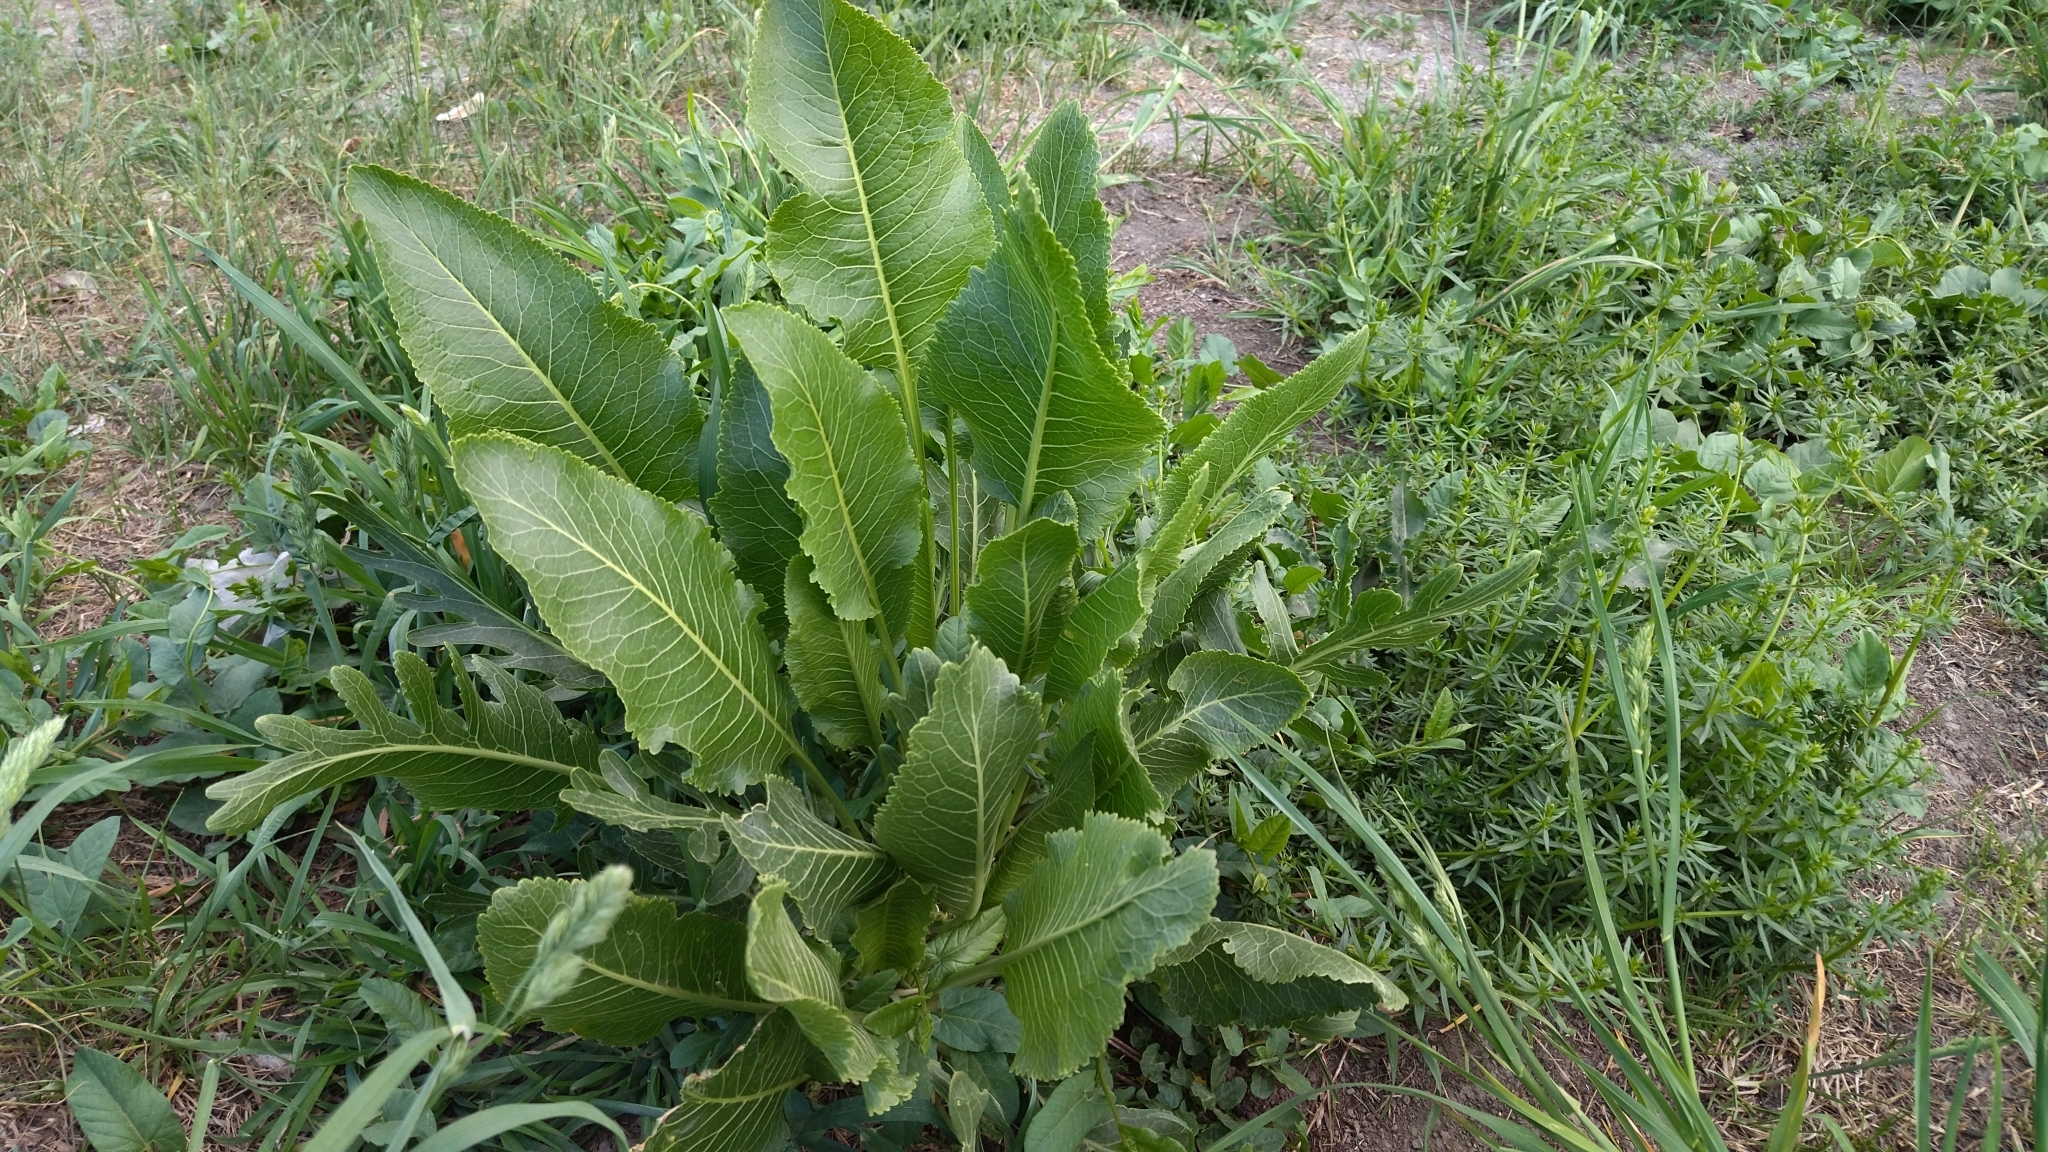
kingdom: Plantae
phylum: Tracheophyta
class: Magnoliopsida
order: Brassicales
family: Brassicaceae
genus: Armoracia
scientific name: Armoracia rusticana
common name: Horseradish
